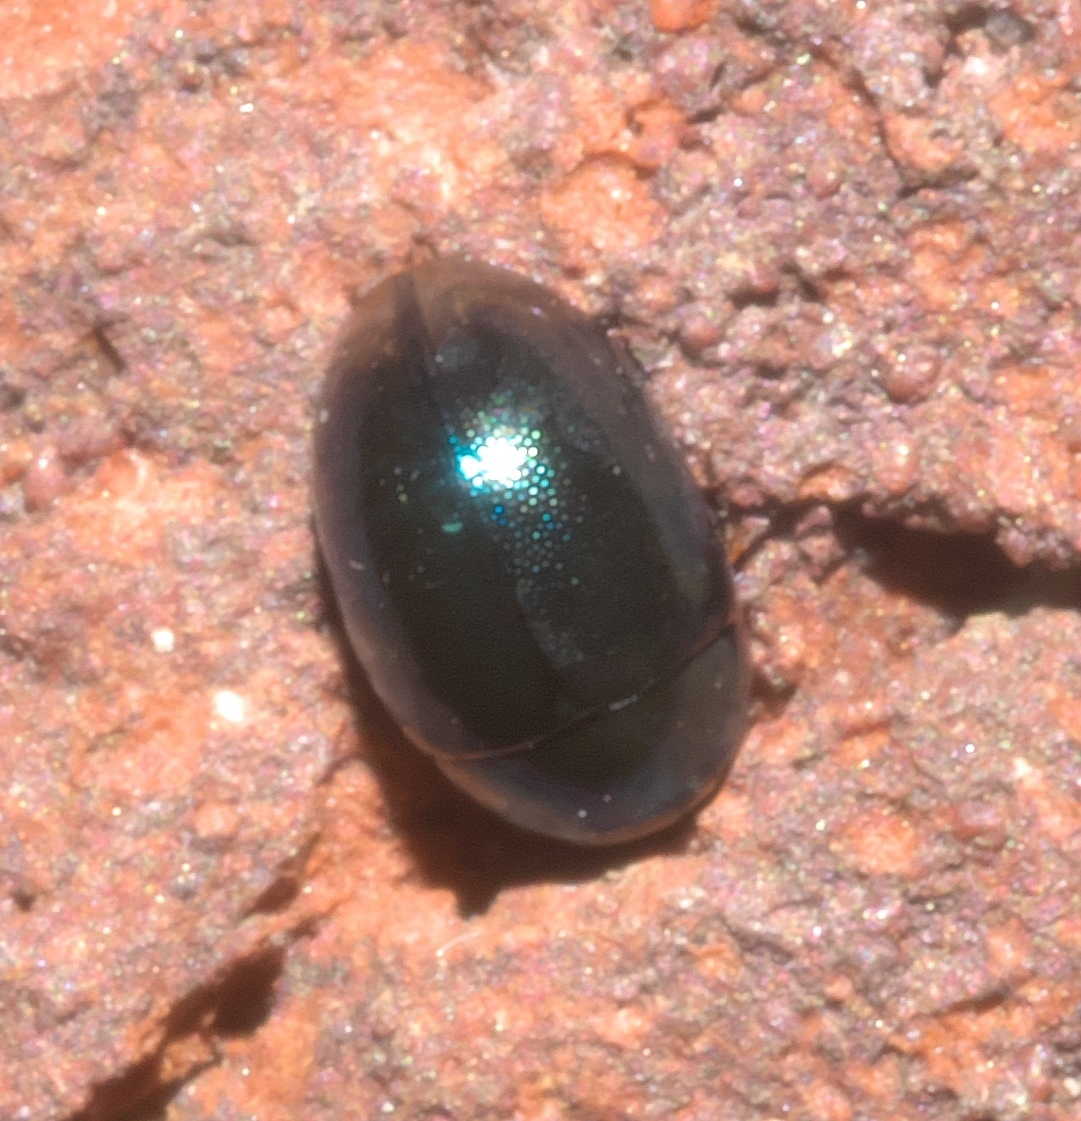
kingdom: Animalia
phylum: Arthropoda
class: Insecta
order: Coleoptera
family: Hydrophilidae
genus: Paracymus
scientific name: Paracymus
